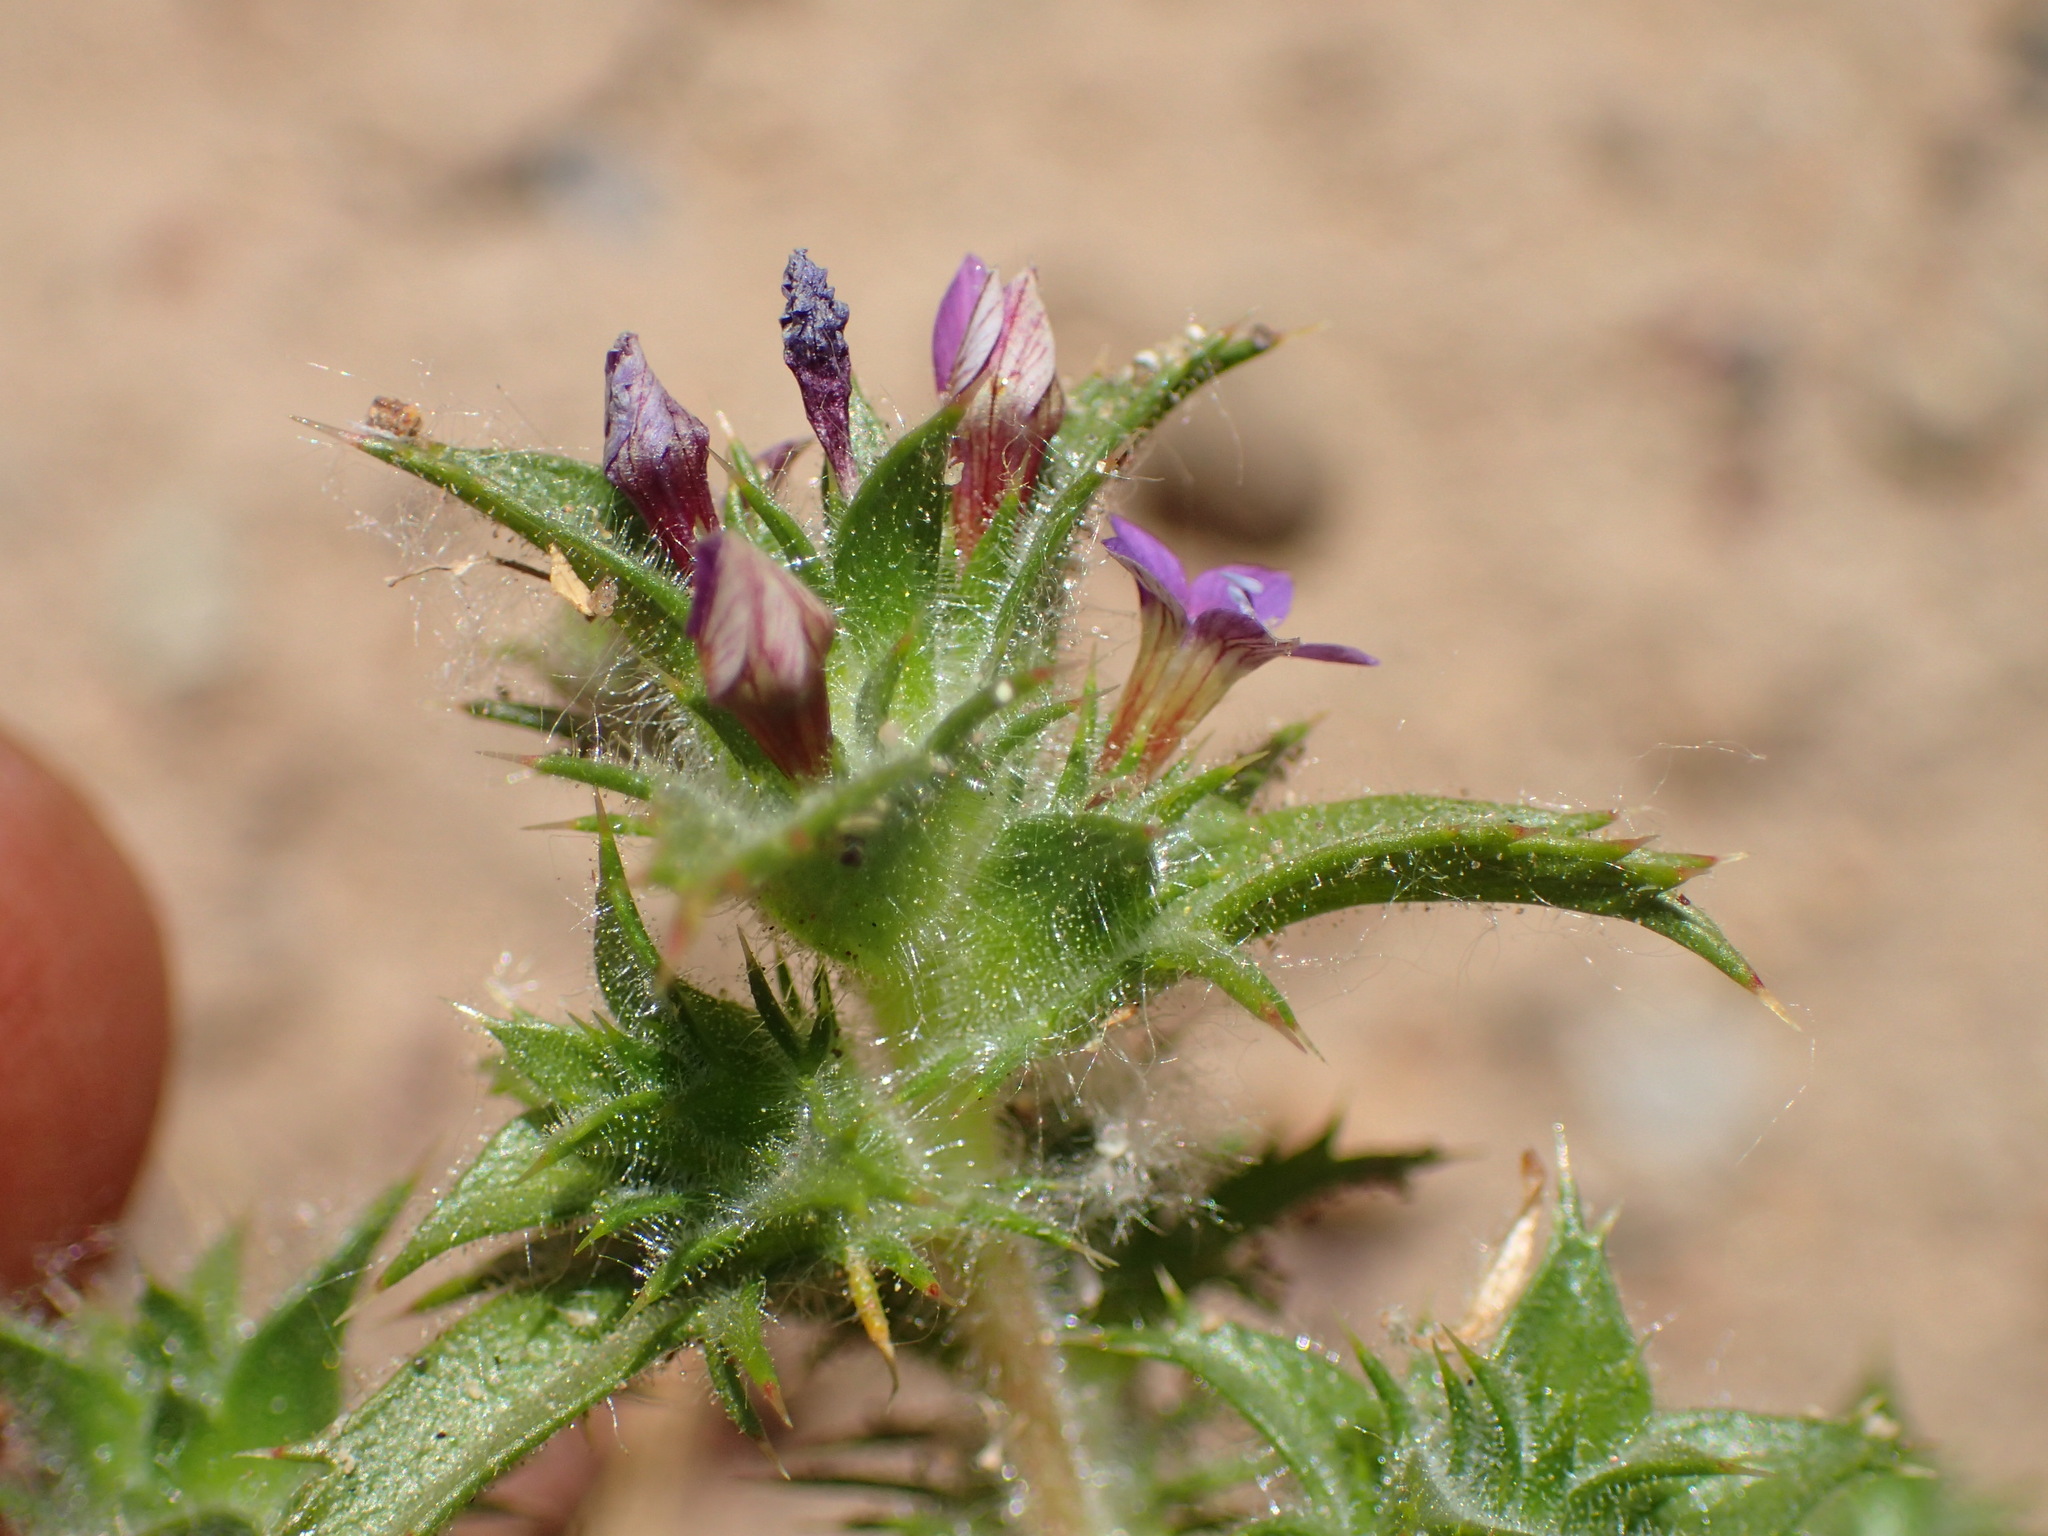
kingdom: Plantae
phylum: Tracheophyta
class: Magnoliopsida
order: Ericales
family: Polemoniaceae
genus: Navarretia
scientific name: Navarretia atractyloides
